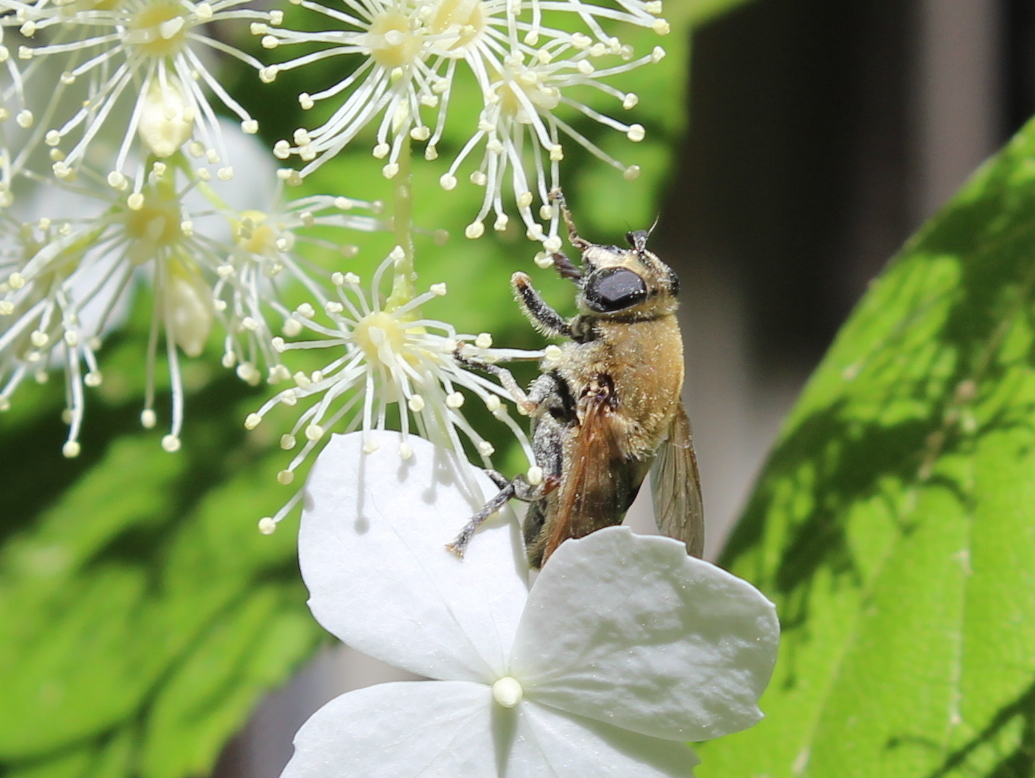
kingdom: Animalia
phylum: Arthropoda
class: Insecta
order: Diptera
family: Syrphidae
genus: Polydontomyia
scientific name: Polydontomyia curvipes
